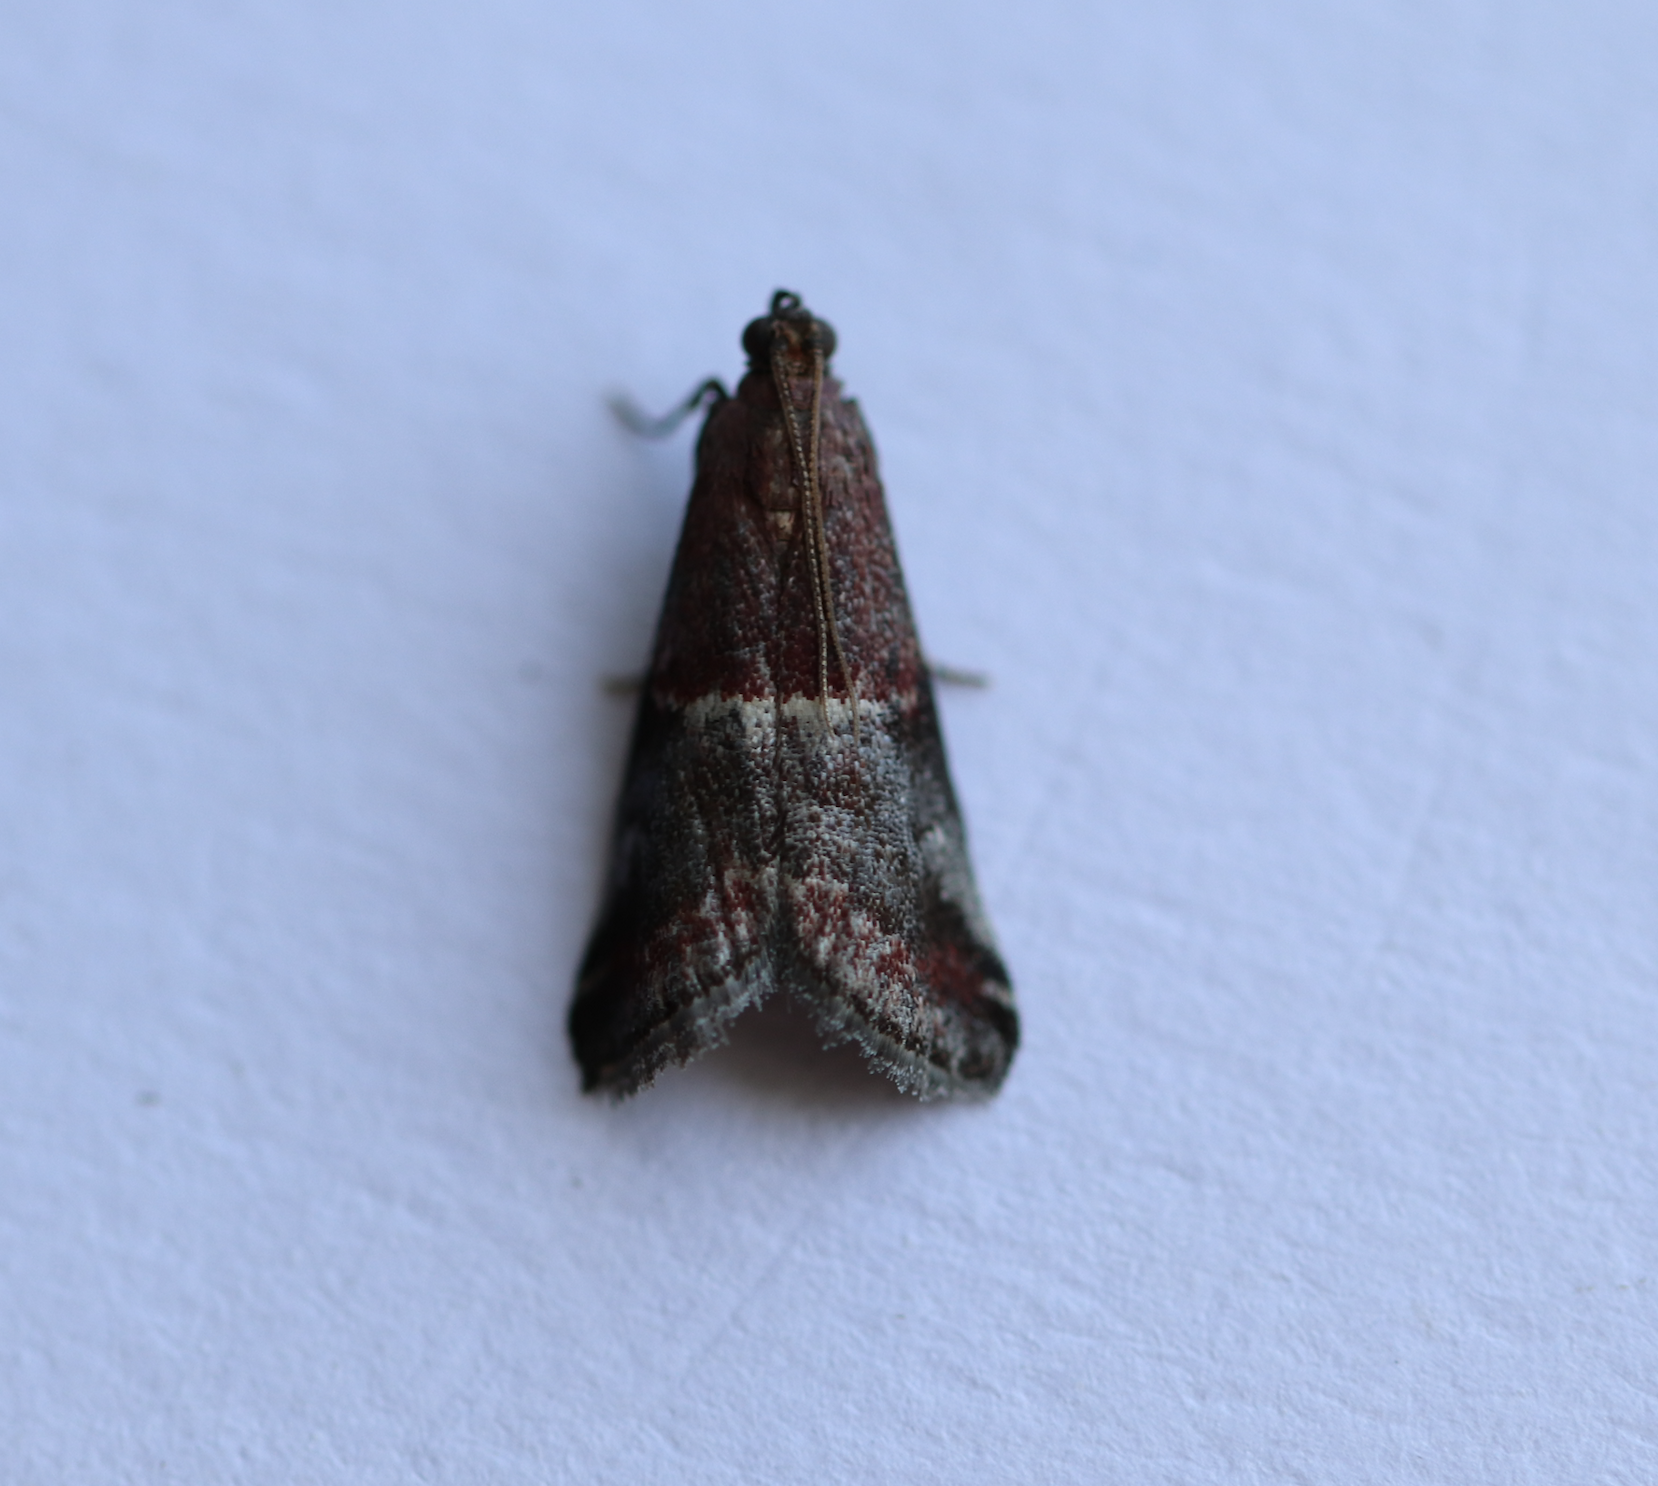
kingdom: Animalia
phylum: Arthropoda
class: Insecta
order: Lepidoptera
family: Pyralidae
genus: Acrobasis
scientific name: Acrobasis marmorea
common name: Marbled knot-horn
